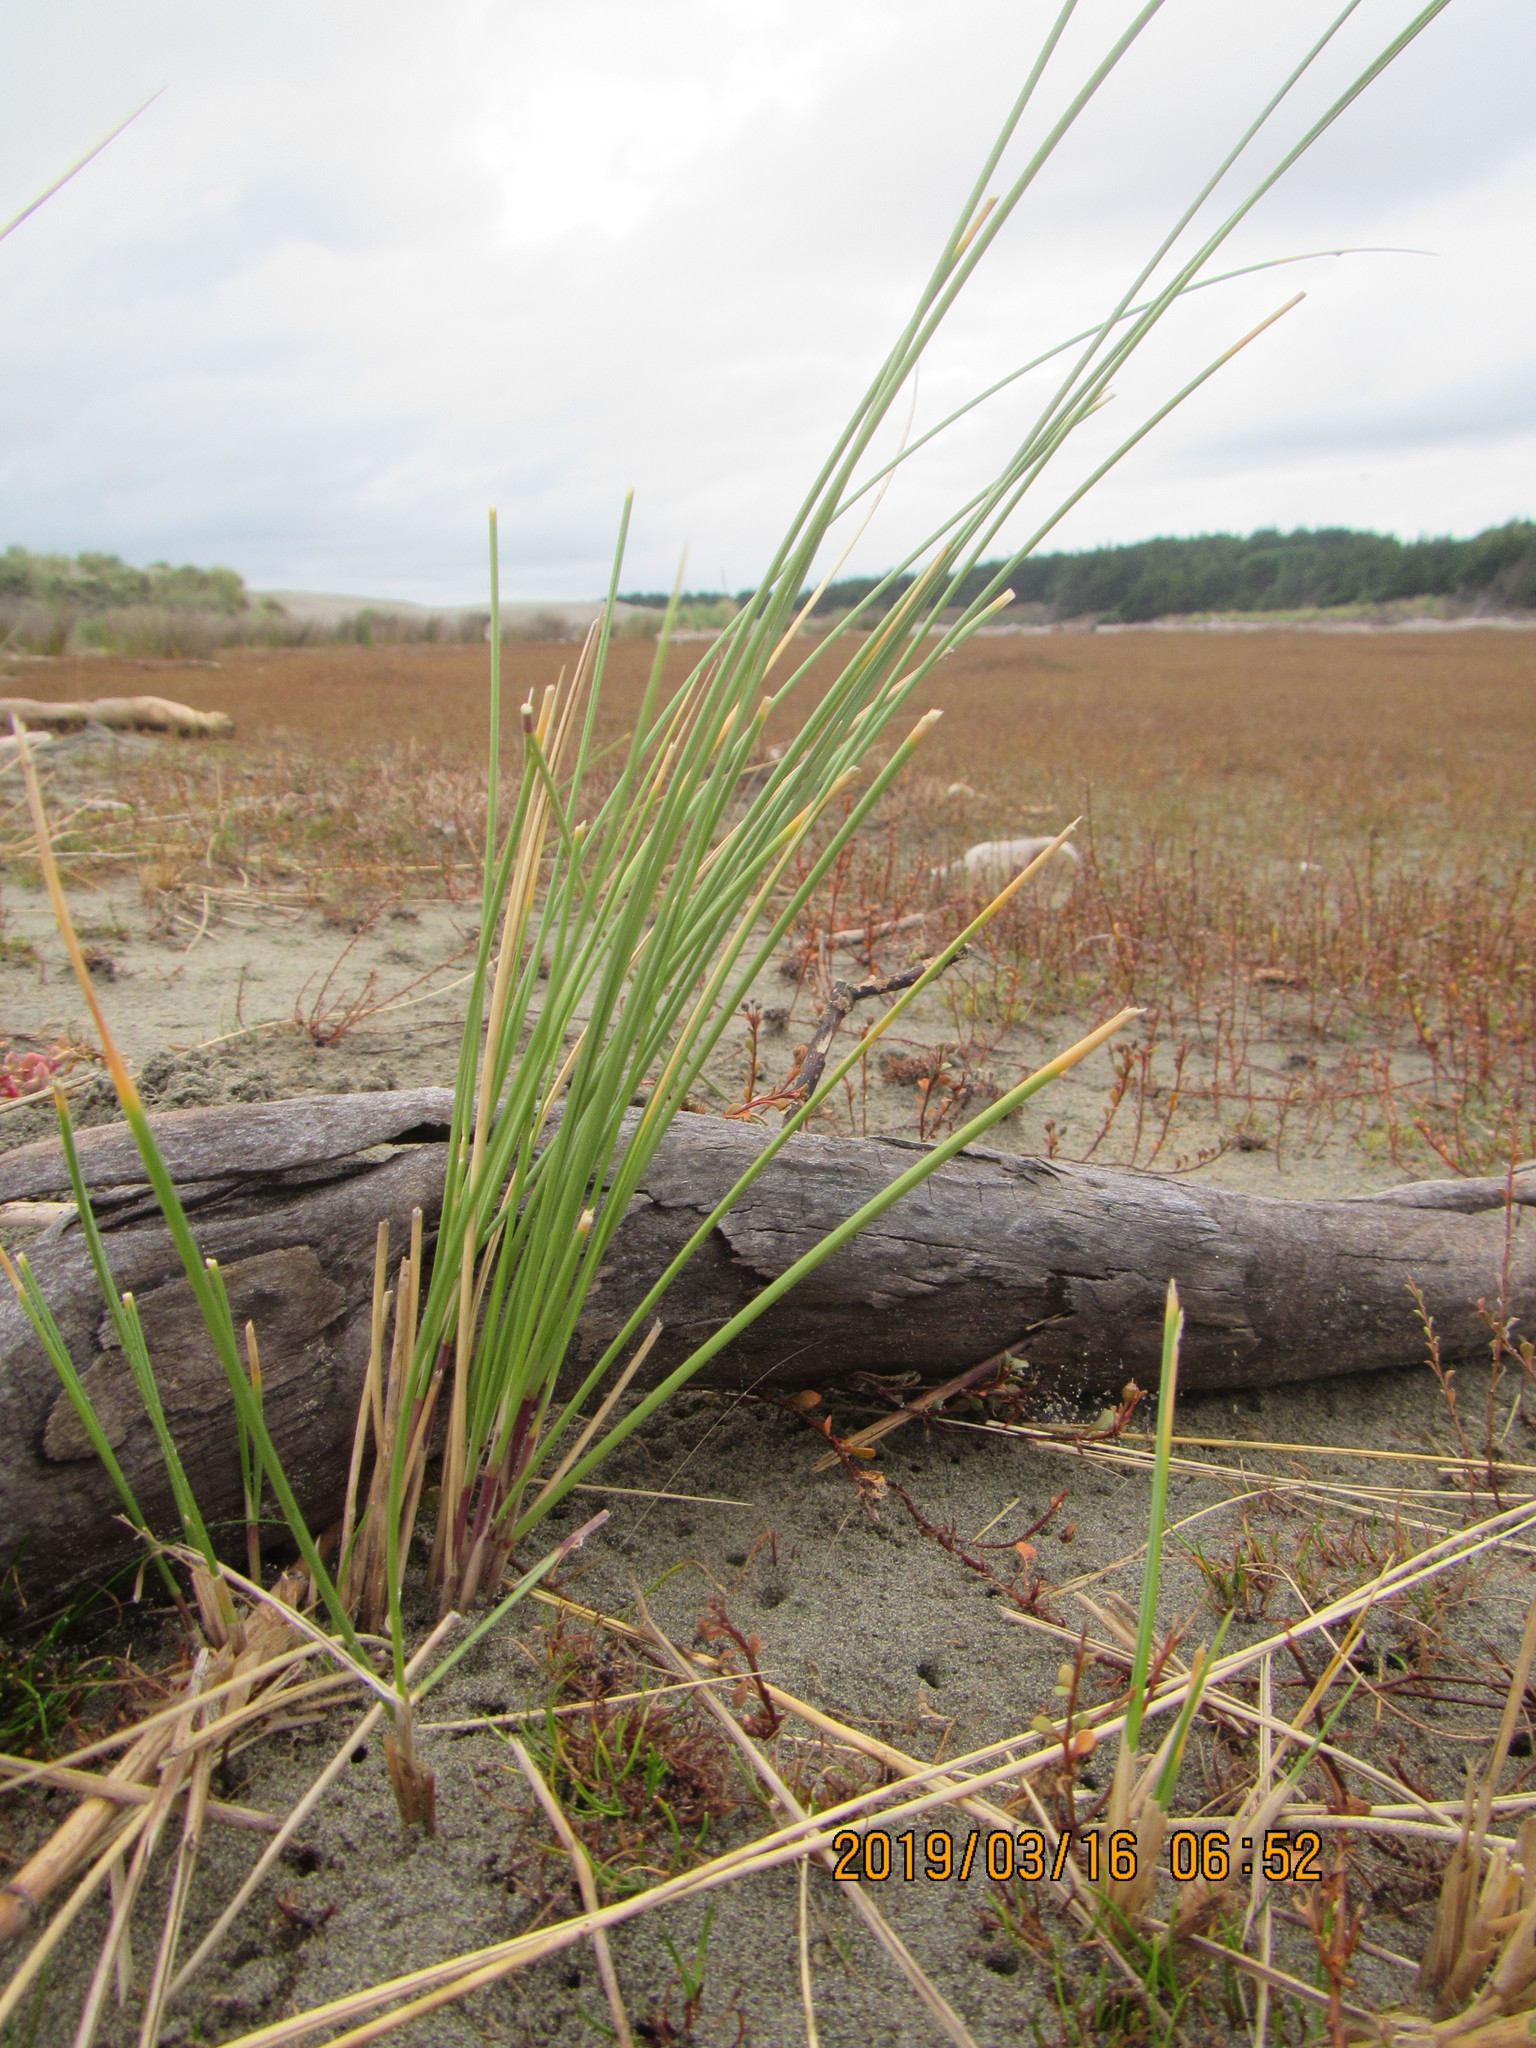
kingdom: Plantae
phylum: Tracheophyta
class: Liliopsida
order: Poales
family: Poaceae
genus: Calamagrostis
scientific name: Calamagrostis arenaria
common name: European beachgrass
